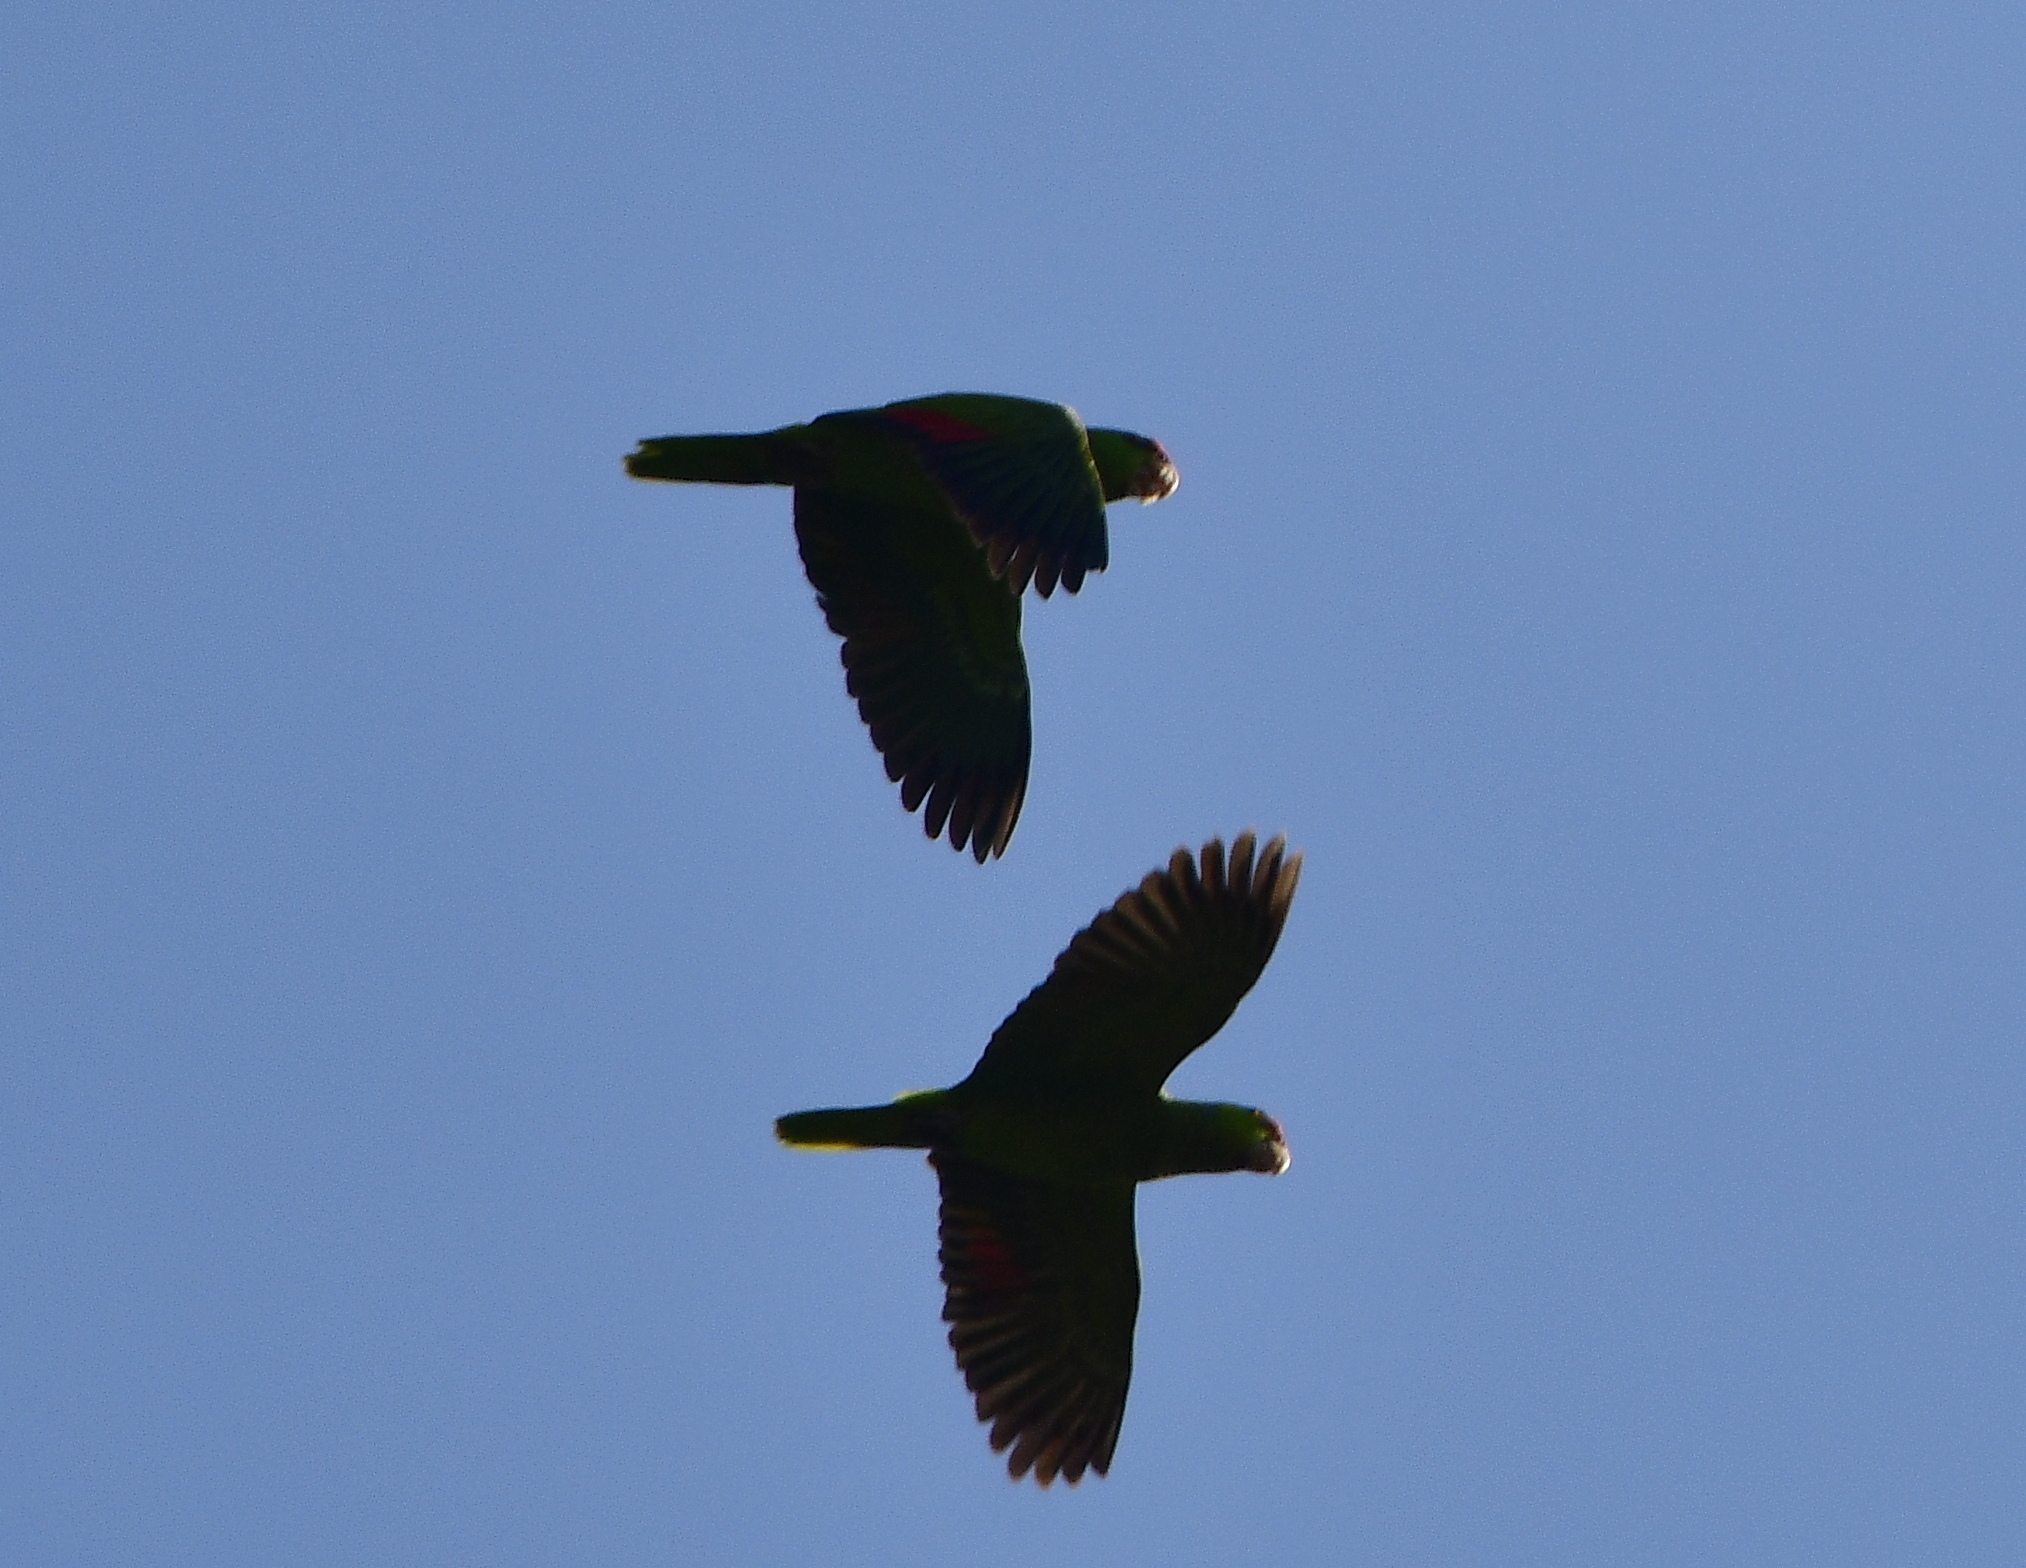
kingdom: Animalia
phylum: Chordata
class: Aves
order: Psittaciformes
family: Psittacidae
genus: Amazona
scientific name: Amazona finschi
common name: Lilac-crowned amazon
